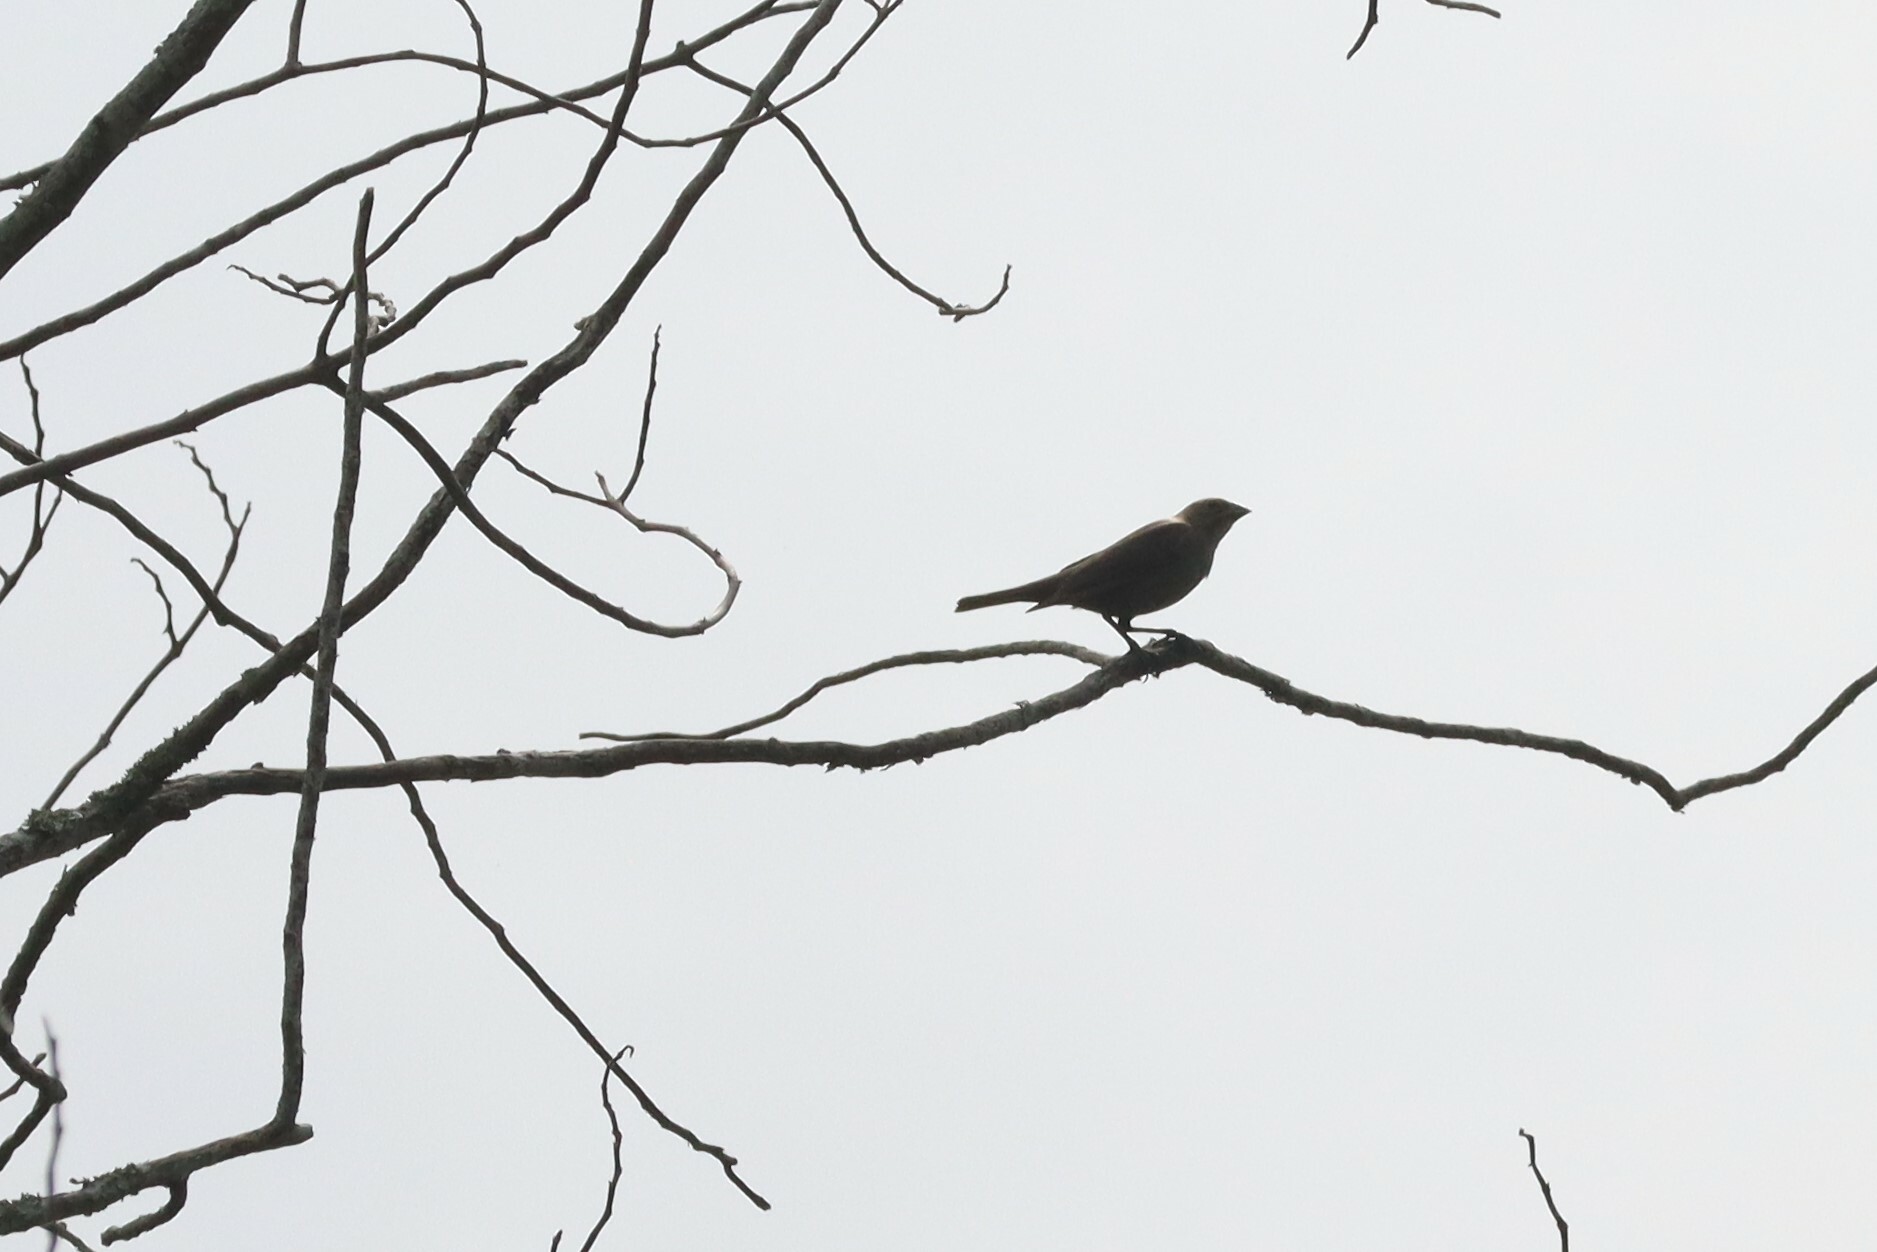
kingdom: Animalia
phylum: Chordata
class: Aves
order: Passeriformes
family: Icteridae
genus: Molothrus
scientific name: Molothrus ater
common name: Brown-headed cowbird
